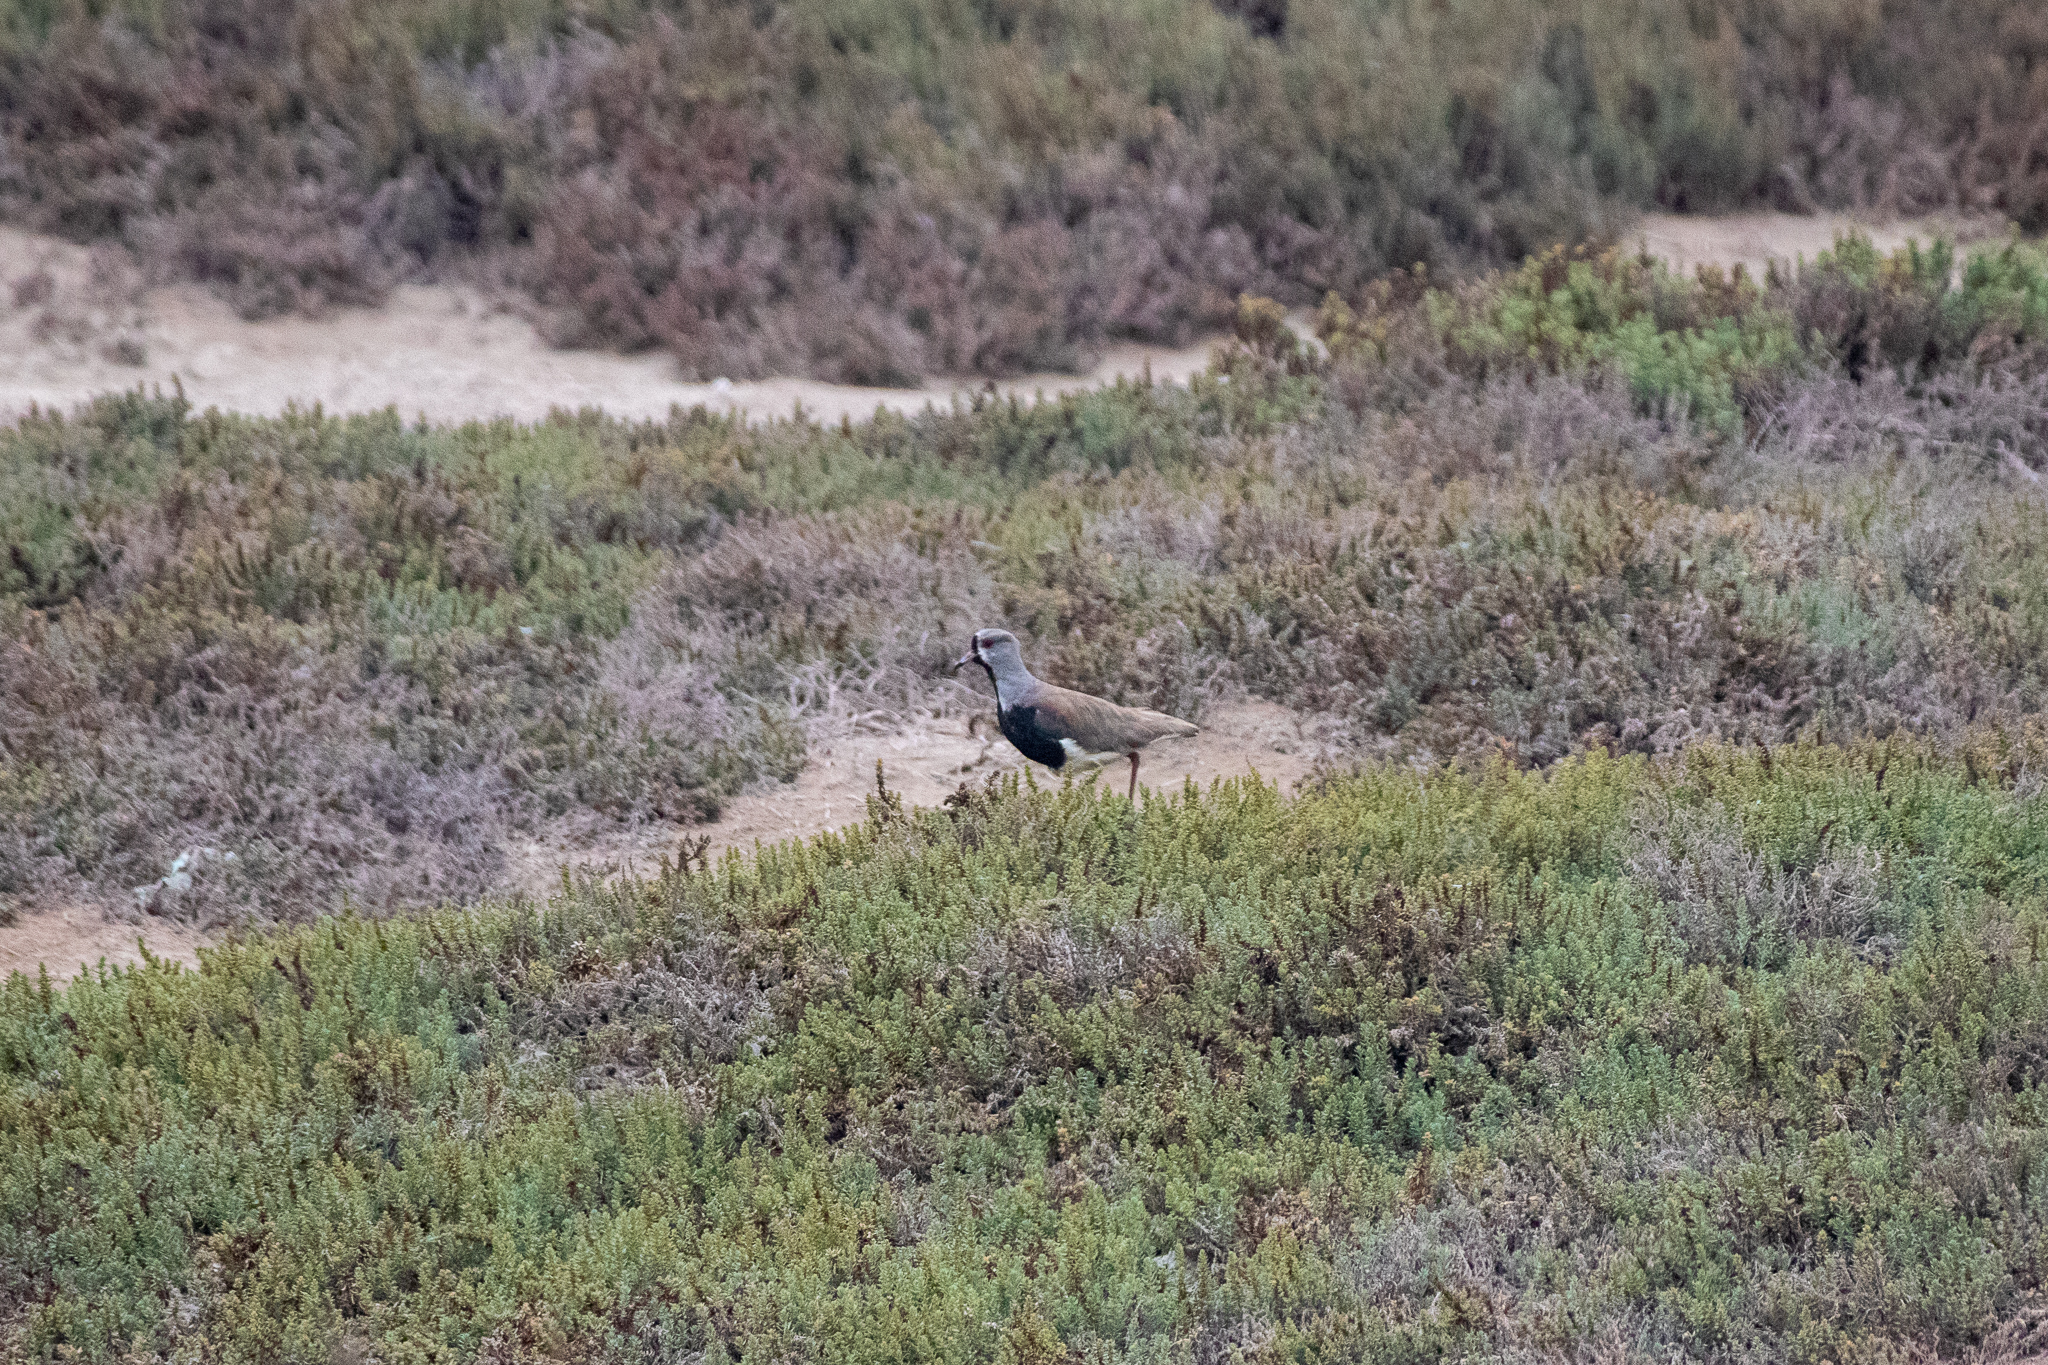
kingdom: Animalia
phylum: Chordata
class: Aves
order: Charadriiformes
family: Charadriidae
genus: Vanellus
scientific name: Vanellus chilensis
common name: Southern lapwing
